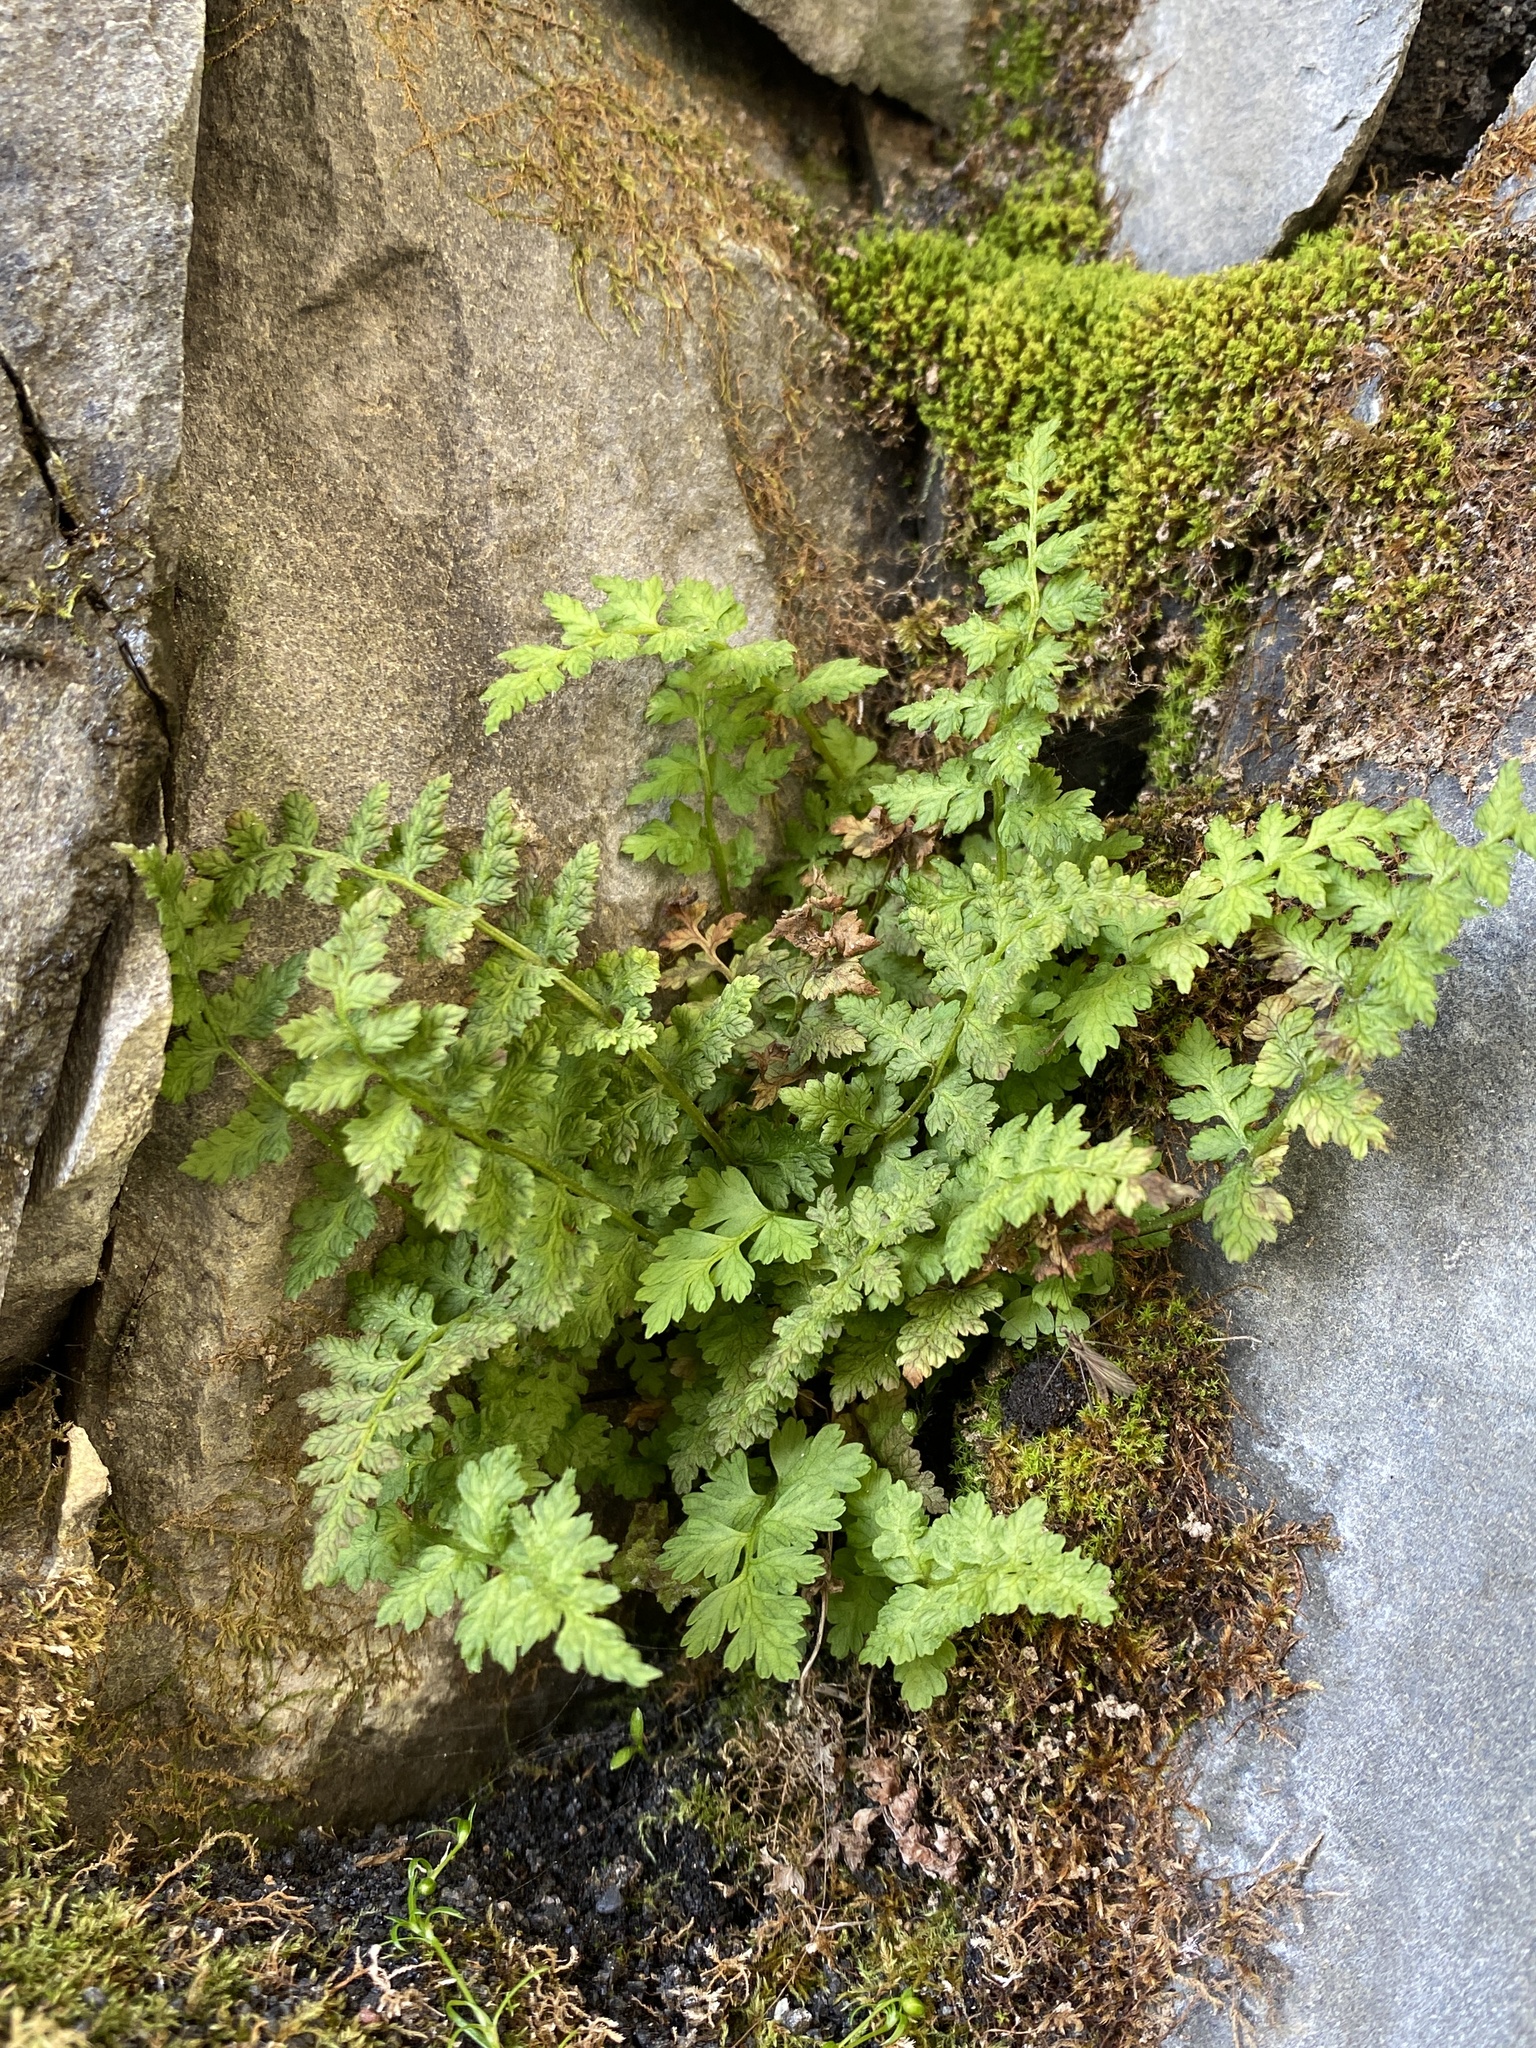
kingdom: Plantae
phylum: Tracheophyta
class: Polypodiopsida
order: Polypodiales
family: Cystopteridaceae
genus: Cystopteris
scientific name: Cystopteris fragilis
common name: Brittle bladder fern
